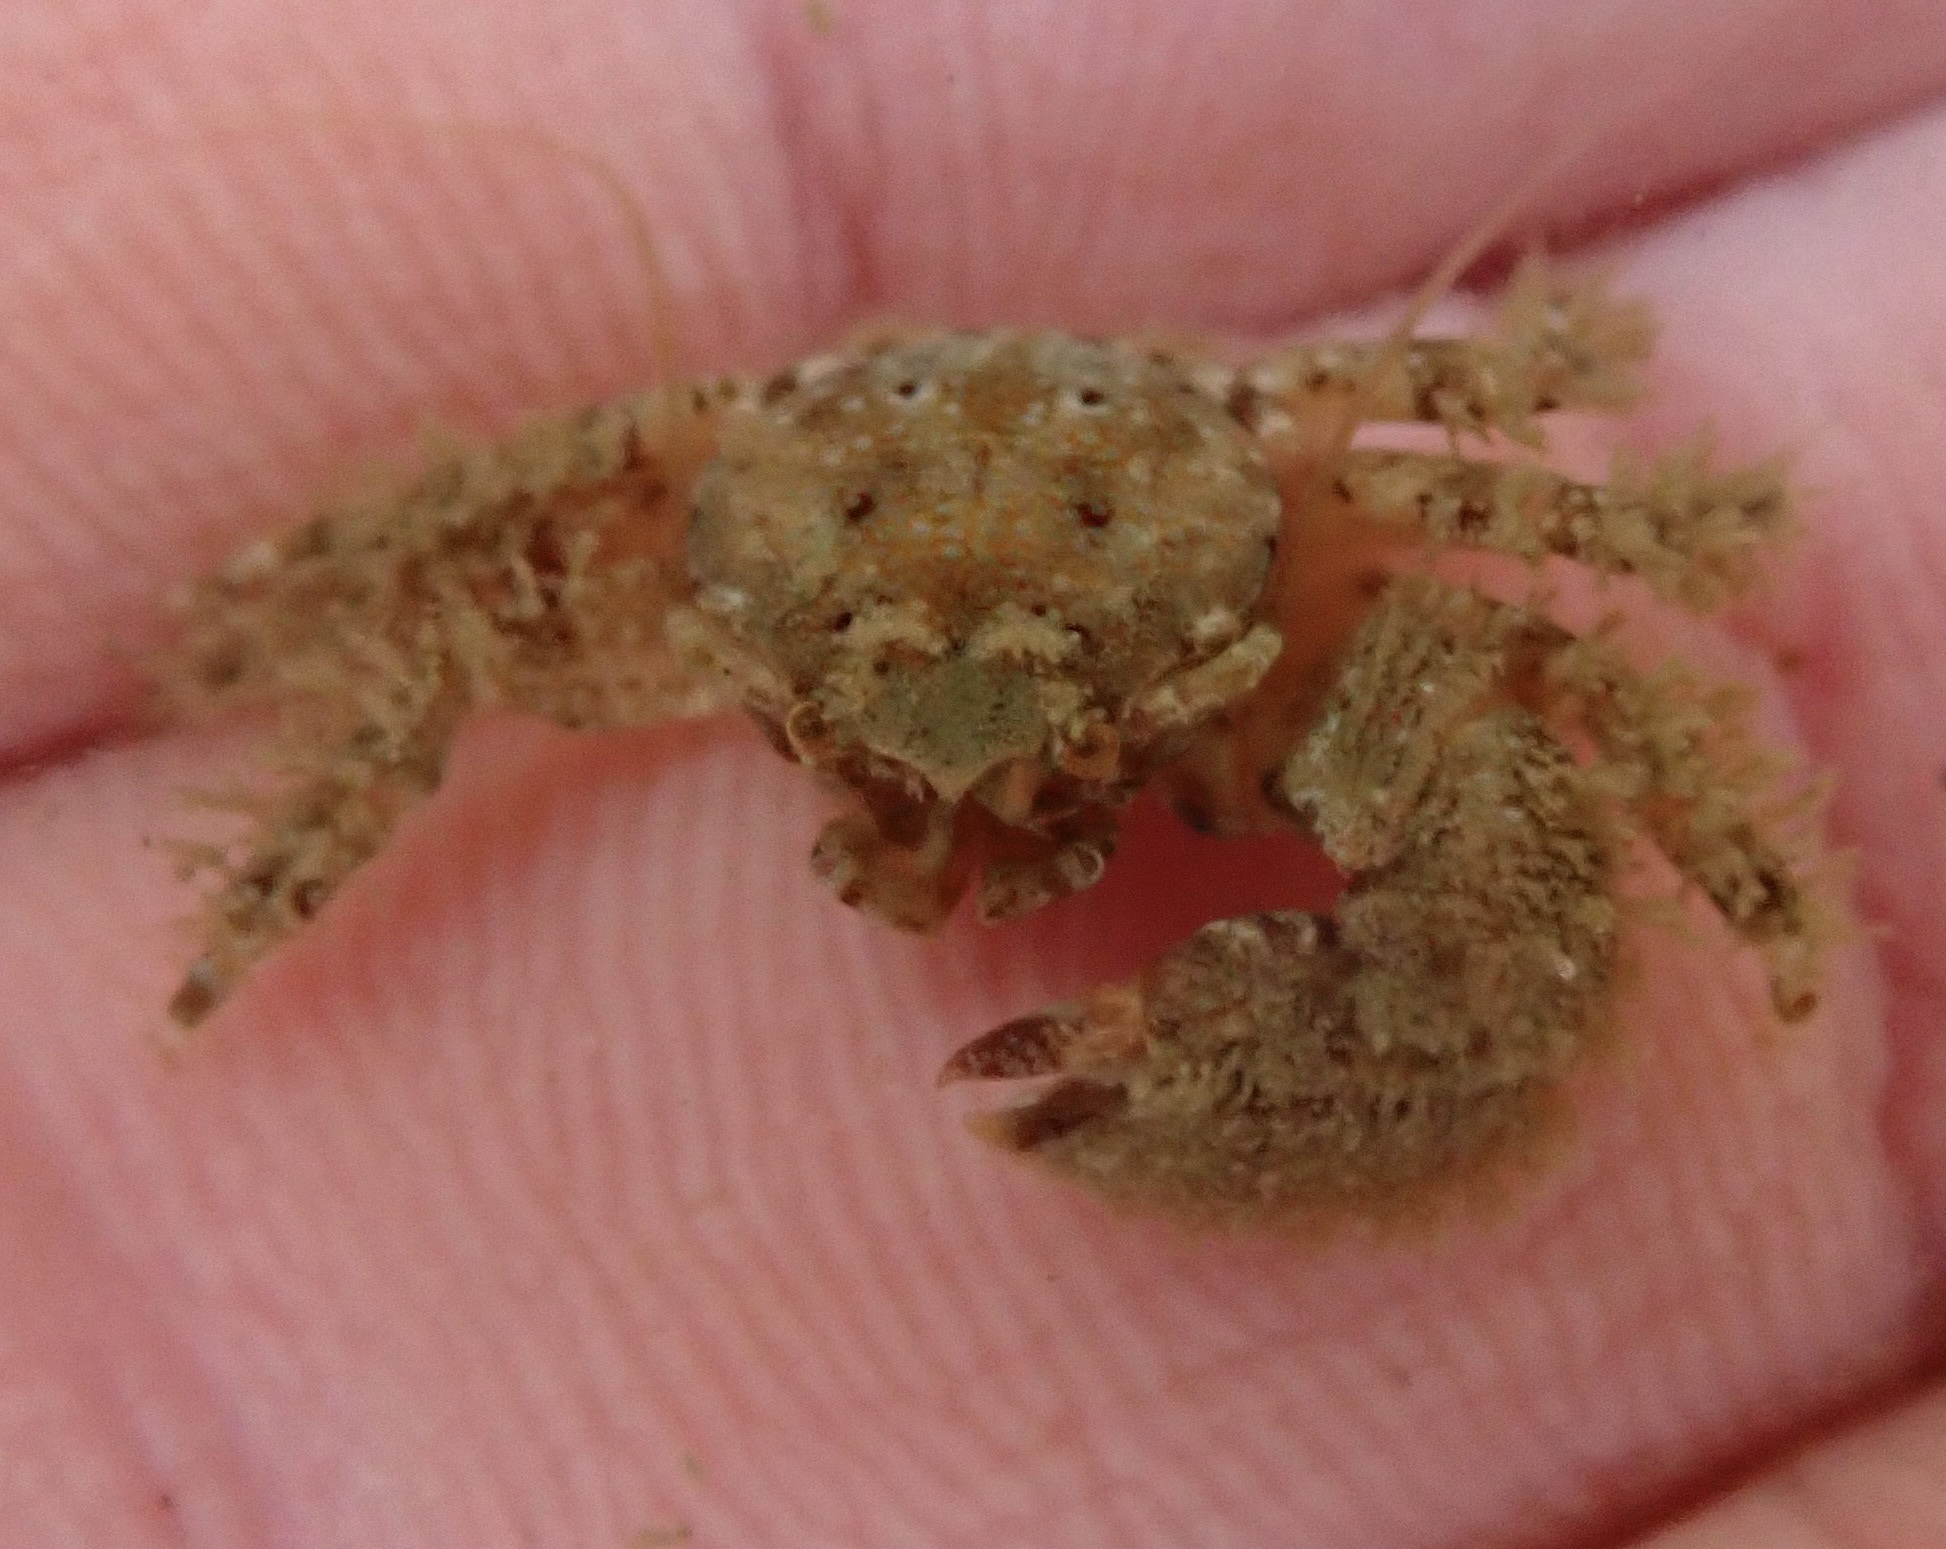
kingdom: Animalia
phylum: Arthropoda
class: Malacostraca
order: Decapoda
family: Porcellanidae
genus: Pachycheles
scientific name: Pachycheles pubescens
